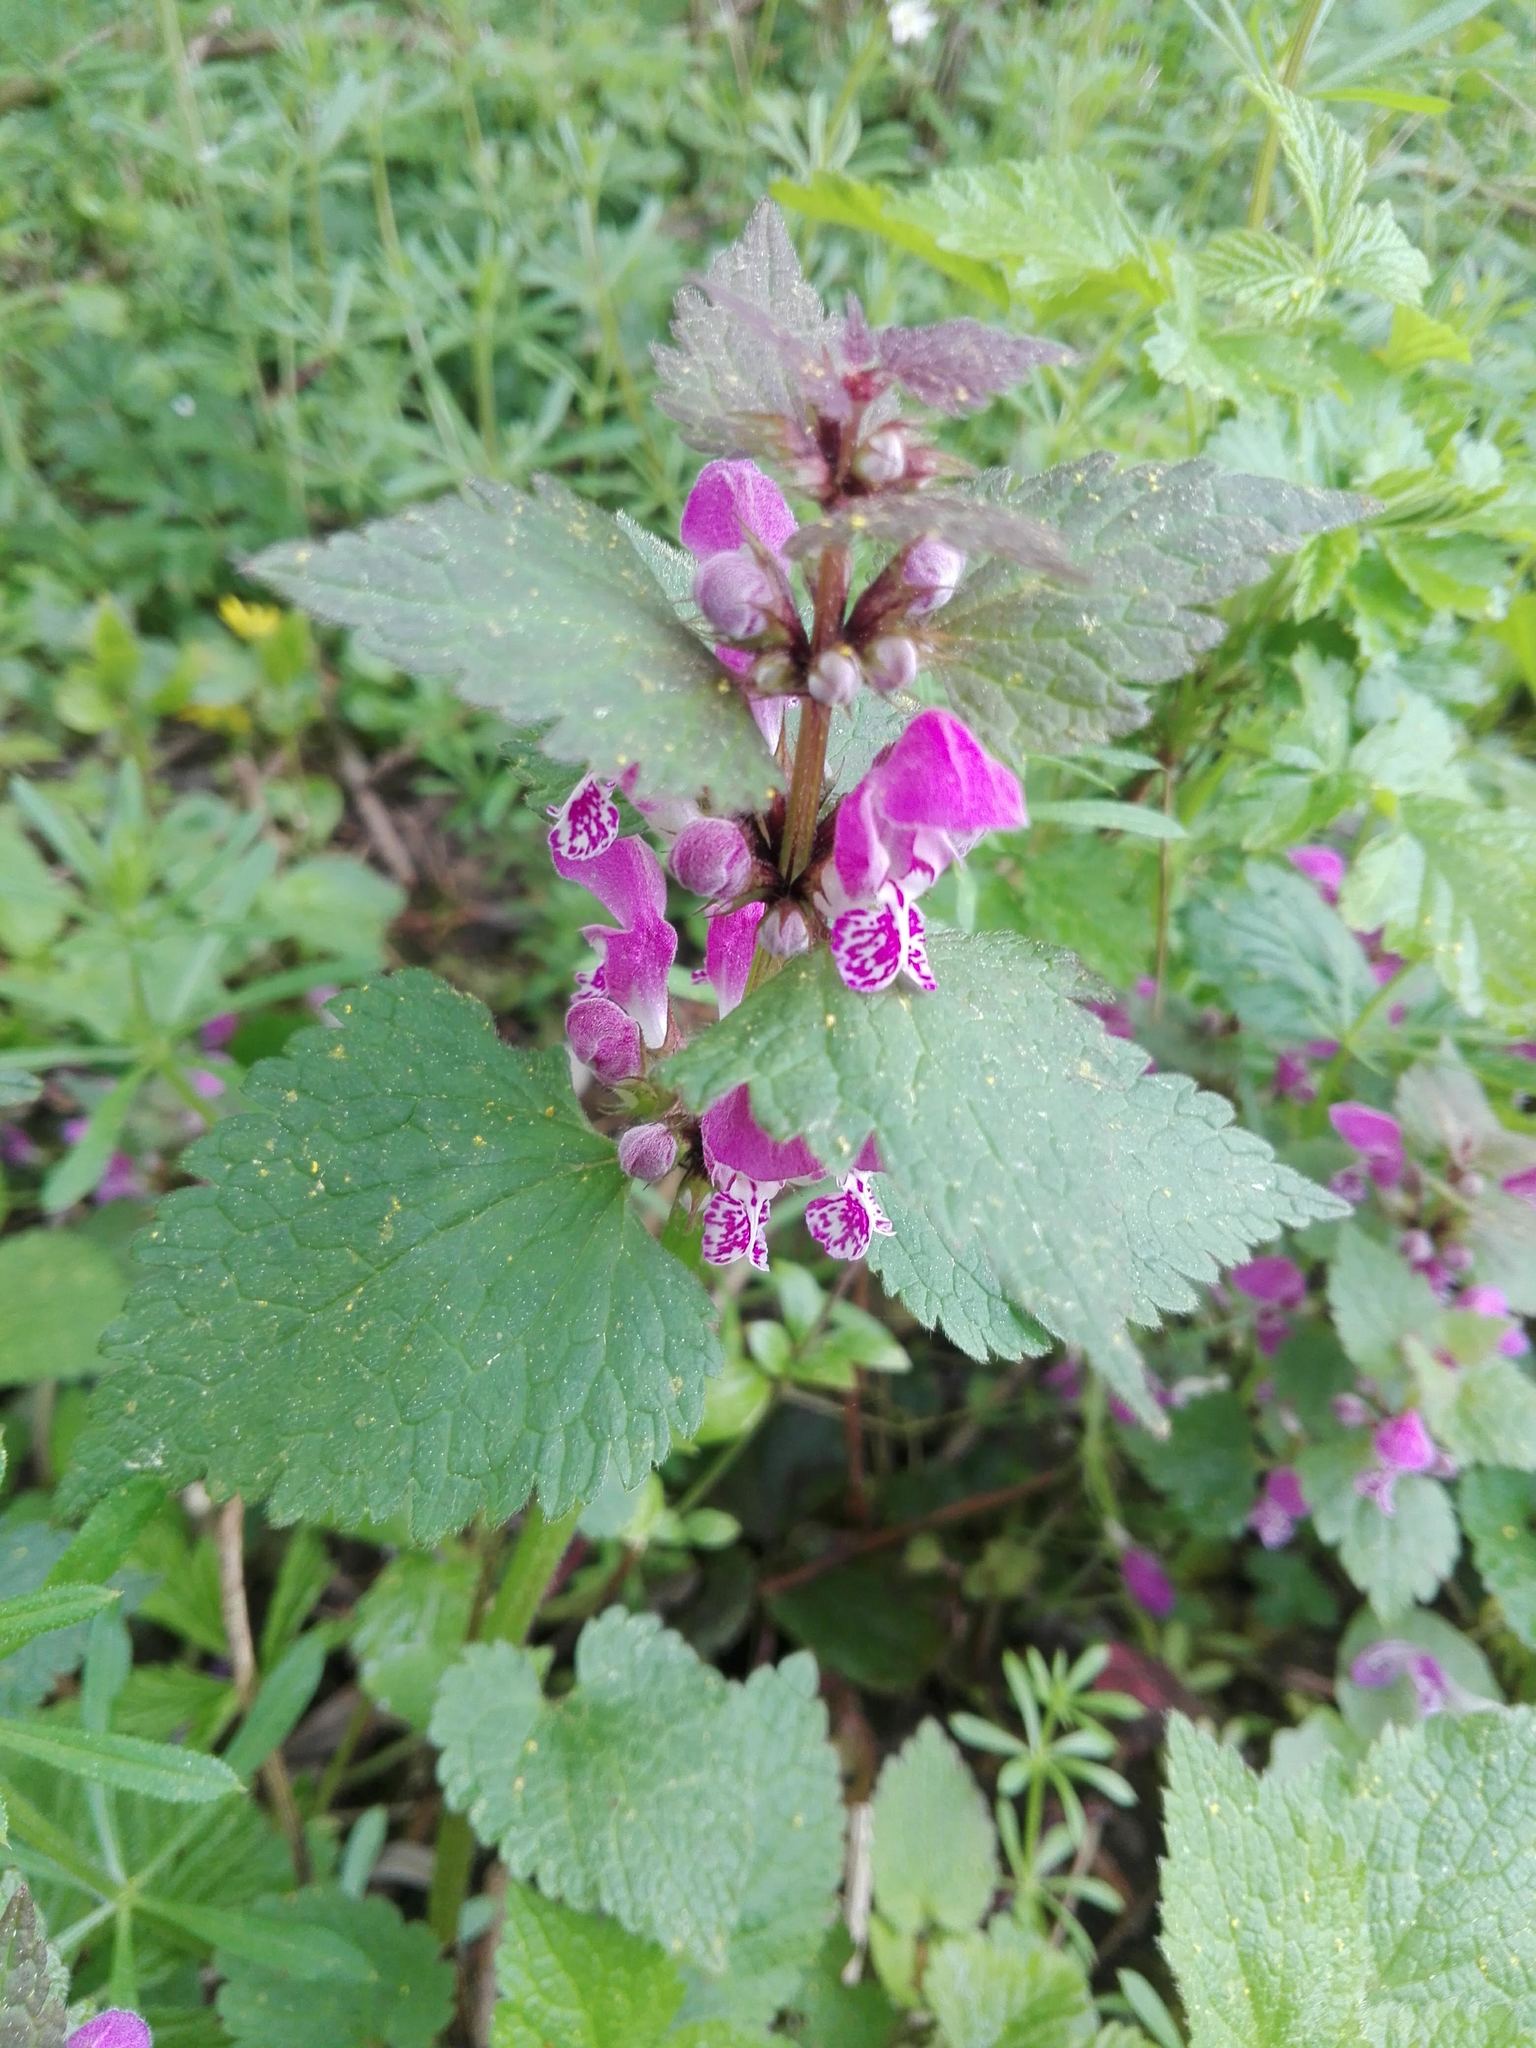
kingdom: Plantae
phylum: Tracheophyta
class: Magnoliopsida
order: Lamiales
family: Lamiaceae
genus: Lamium
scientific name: Lamium maculatum
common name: Spotted dead-nettle
